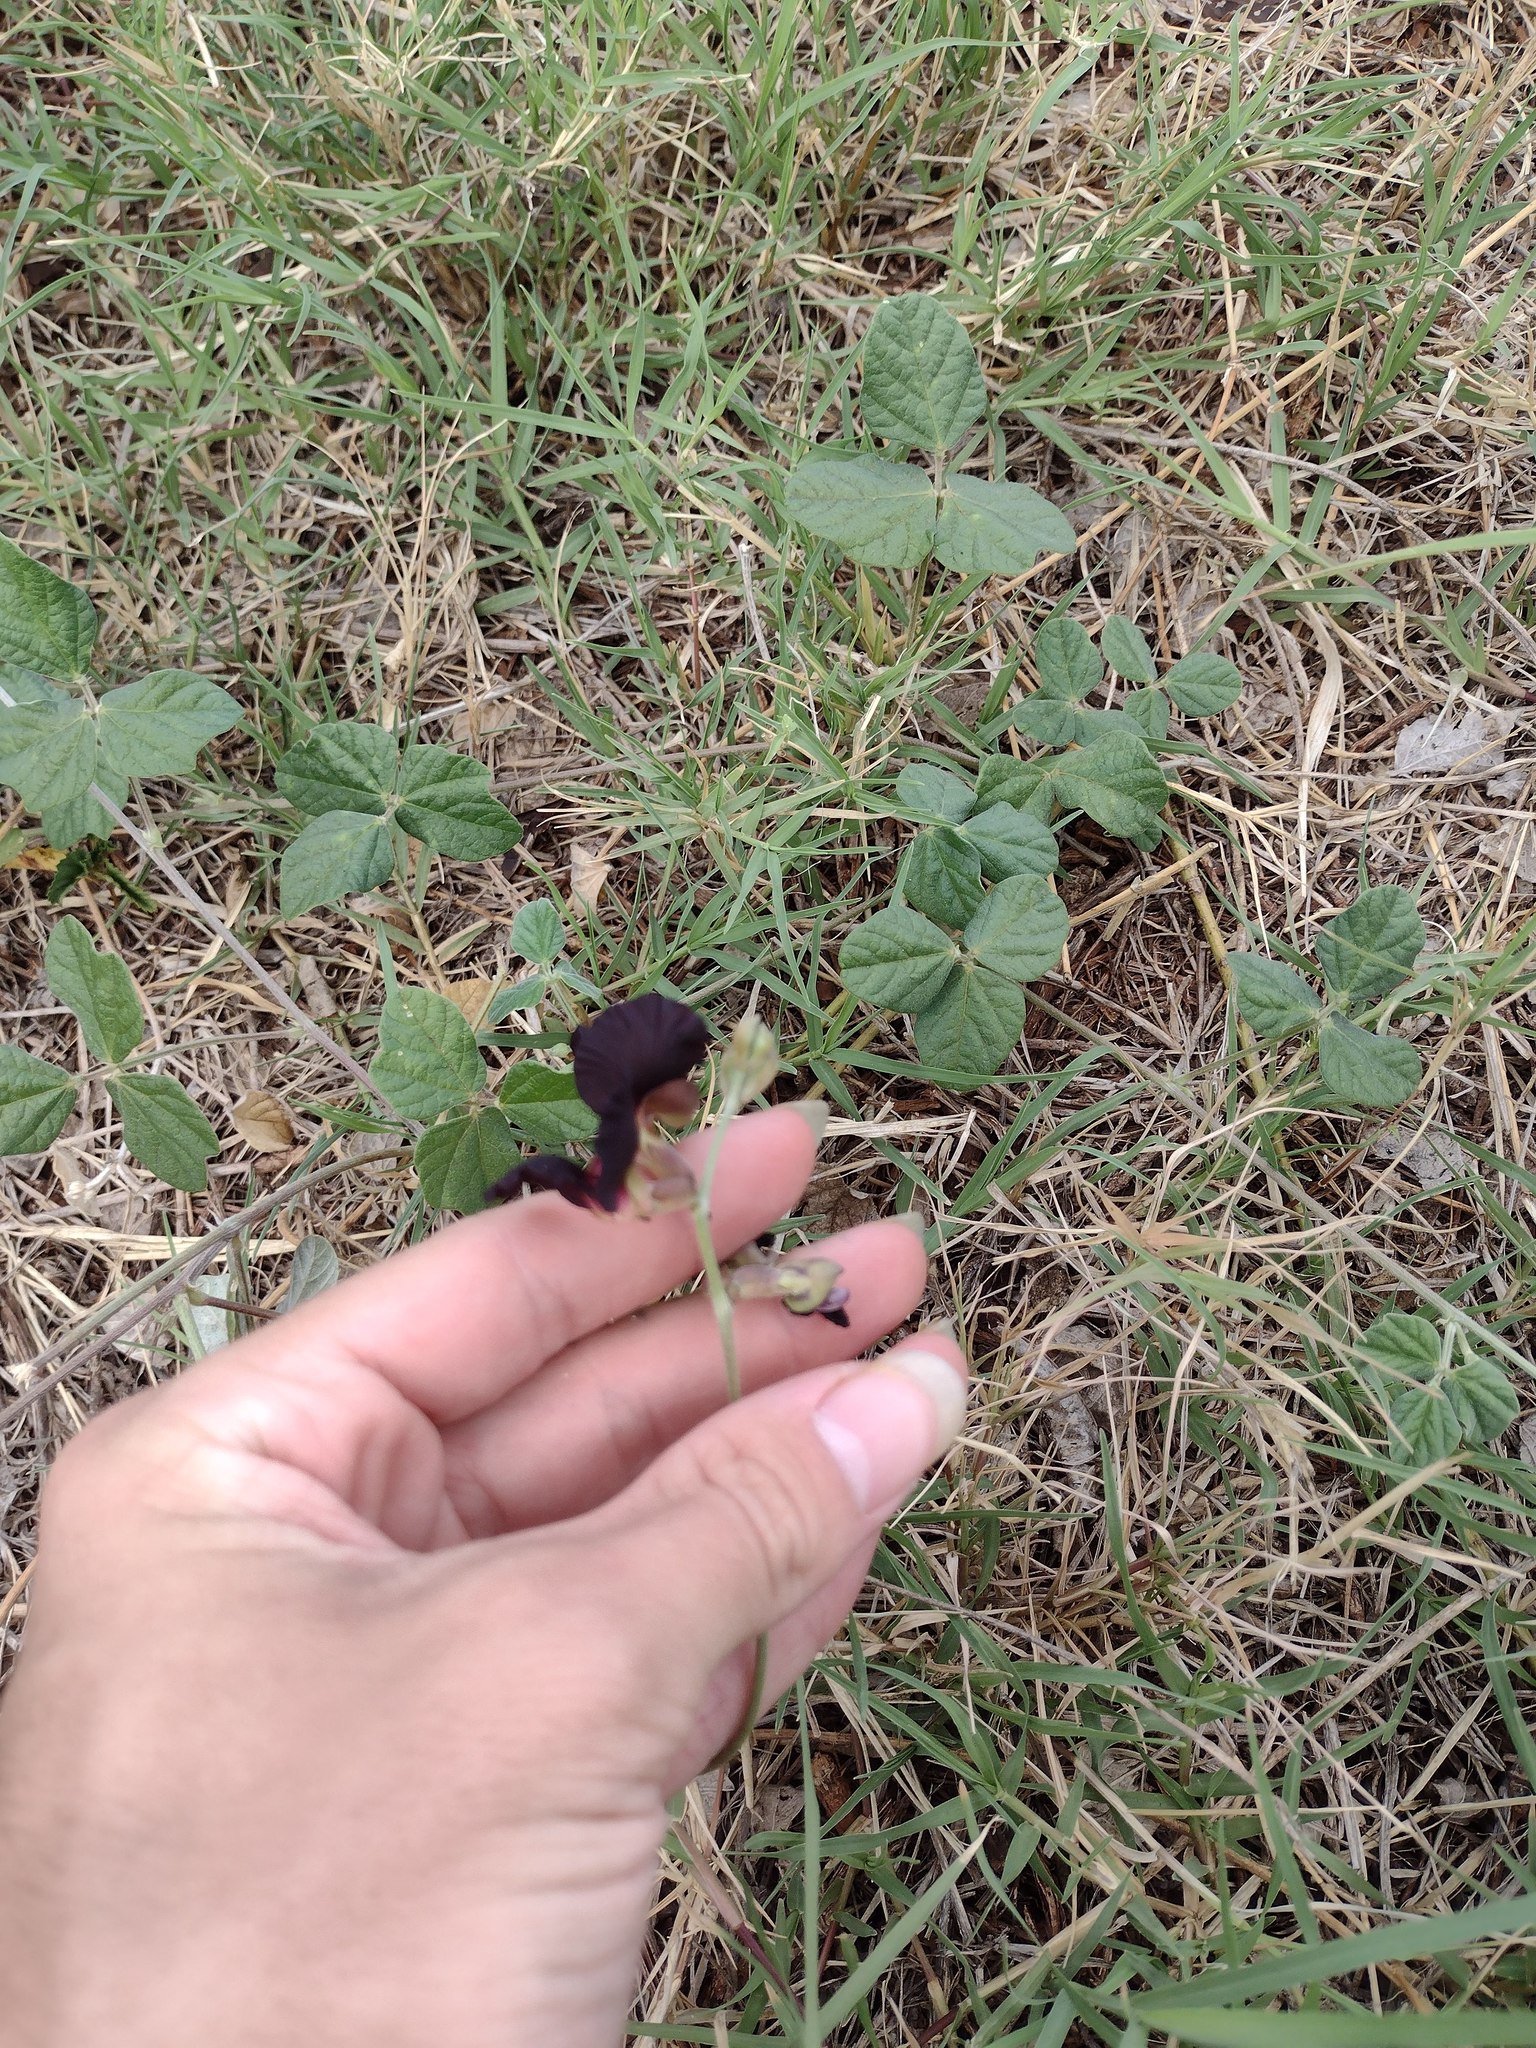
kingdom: Plantae
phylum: Tracheophyta
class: Magnoliopsida
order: Fabales
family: Fabaceae
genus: Macroptilium
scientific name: Macroptilium atropurpureum
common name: Purple bushbean
